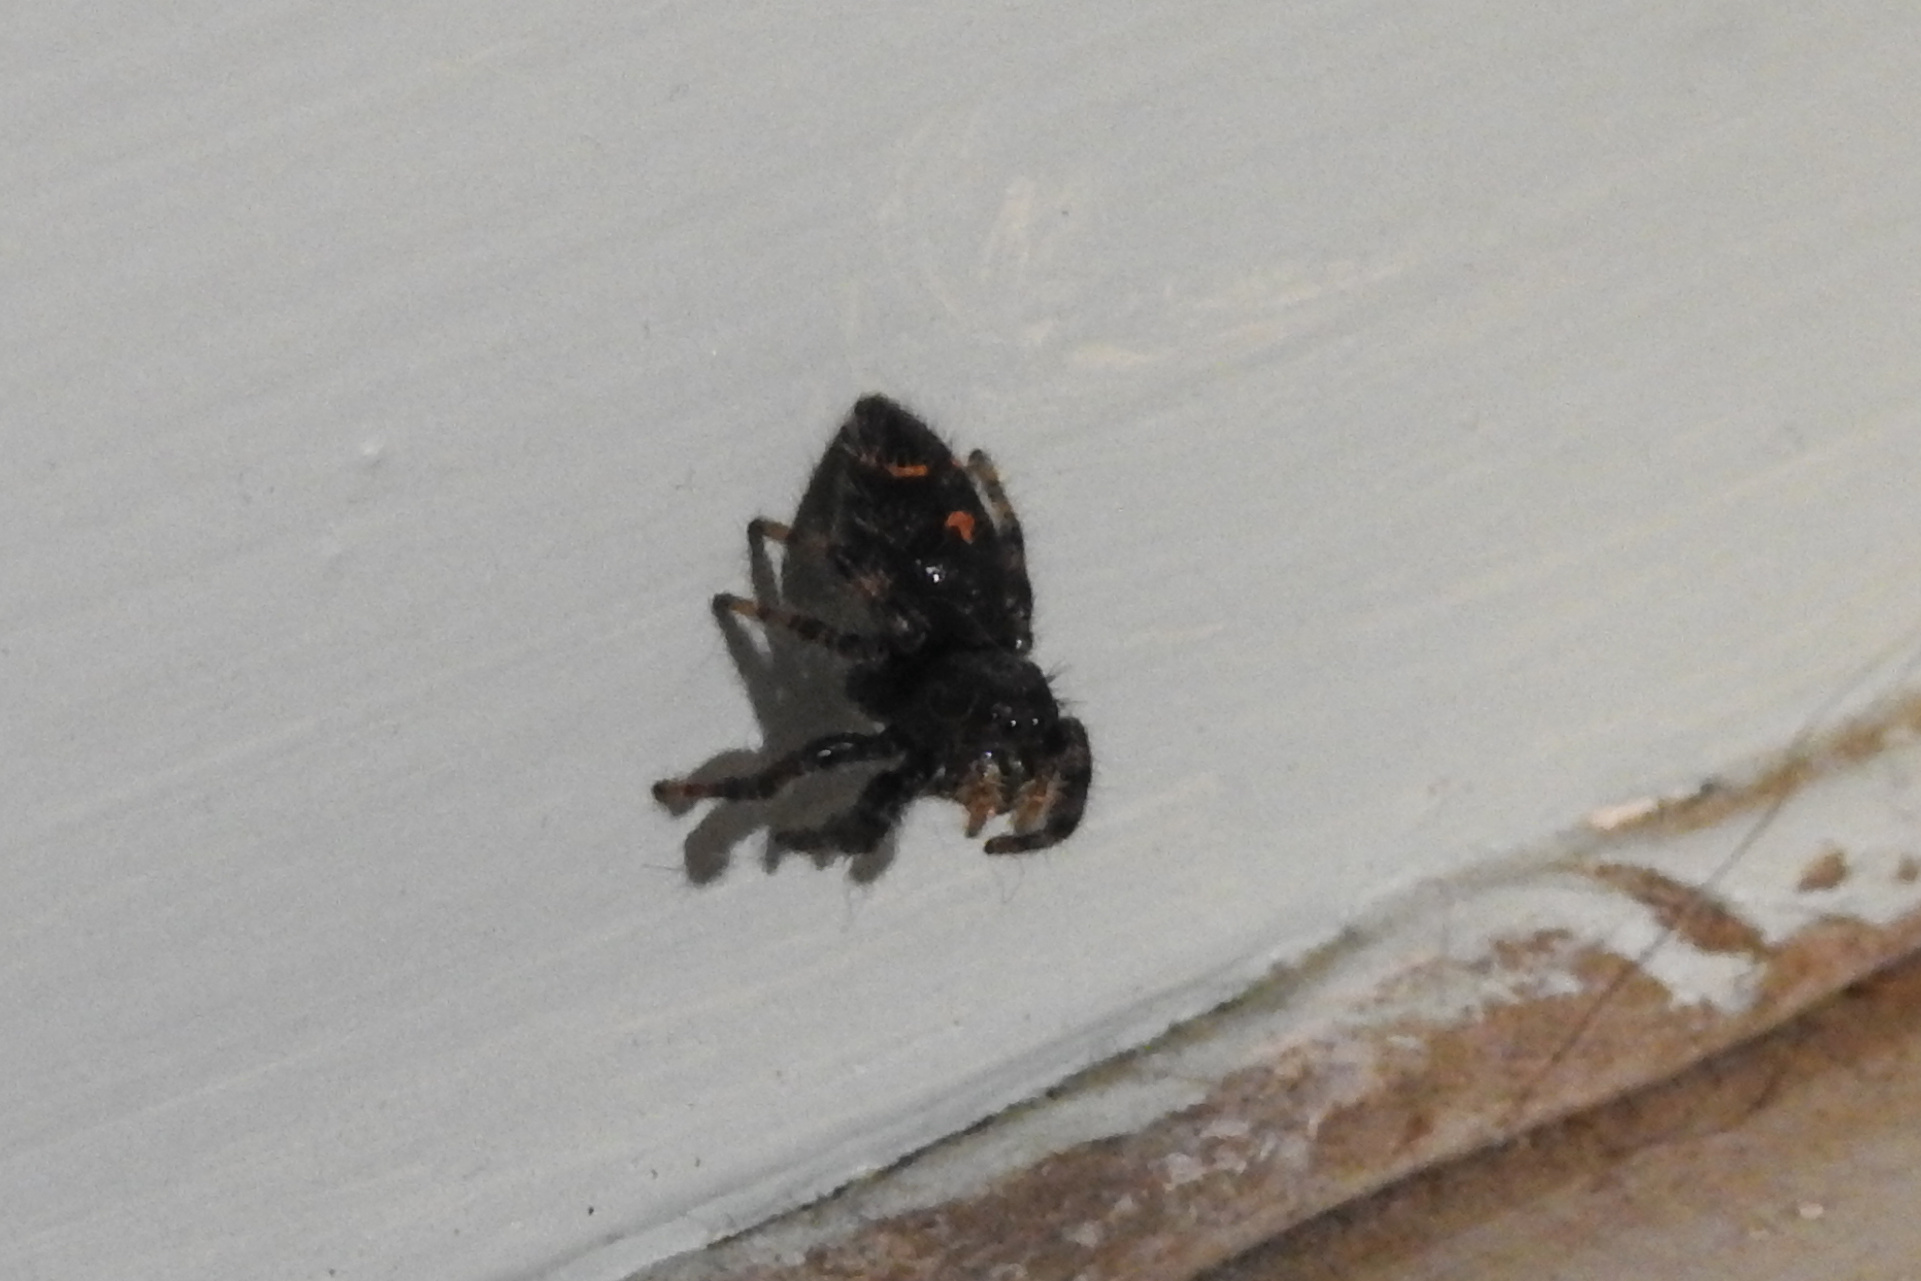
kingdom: Animalia
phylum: Arthropoda
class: Arachnida
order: Araneae
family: Salticidae
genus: Phidippus
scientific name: Phidippus audax
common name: Bold jumper
